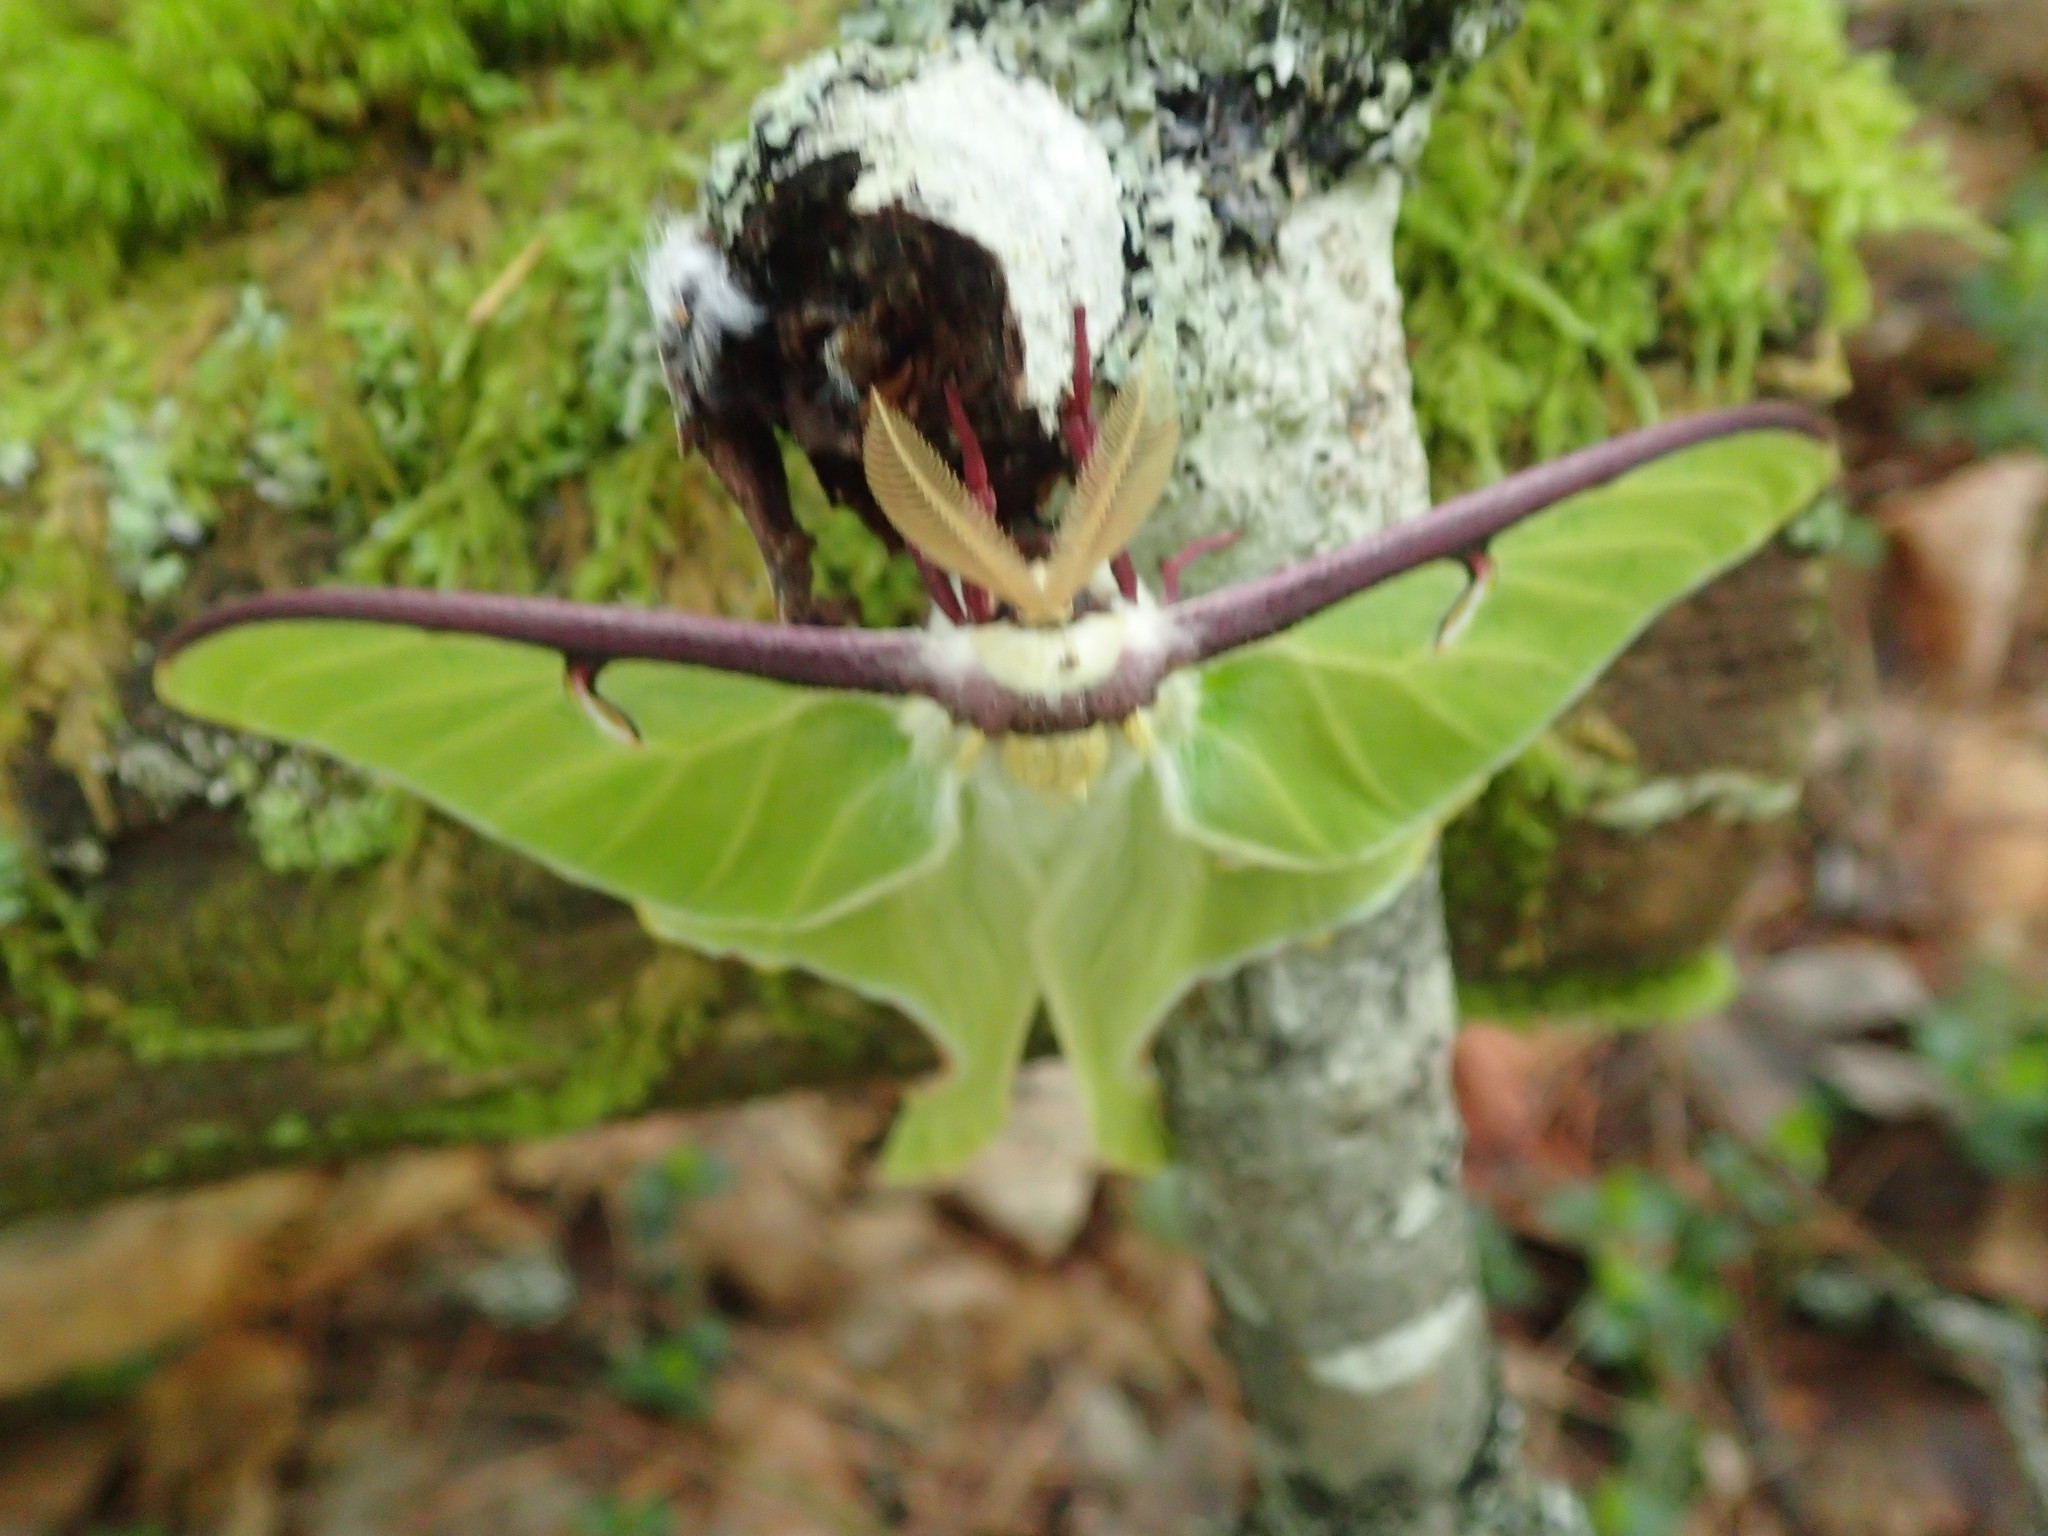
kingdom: Animalia
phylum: Arthropoda
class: Insecta
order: Lepidoptera
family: Saturniidae
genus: Actias
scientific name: Actias luna
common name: Luna moth
